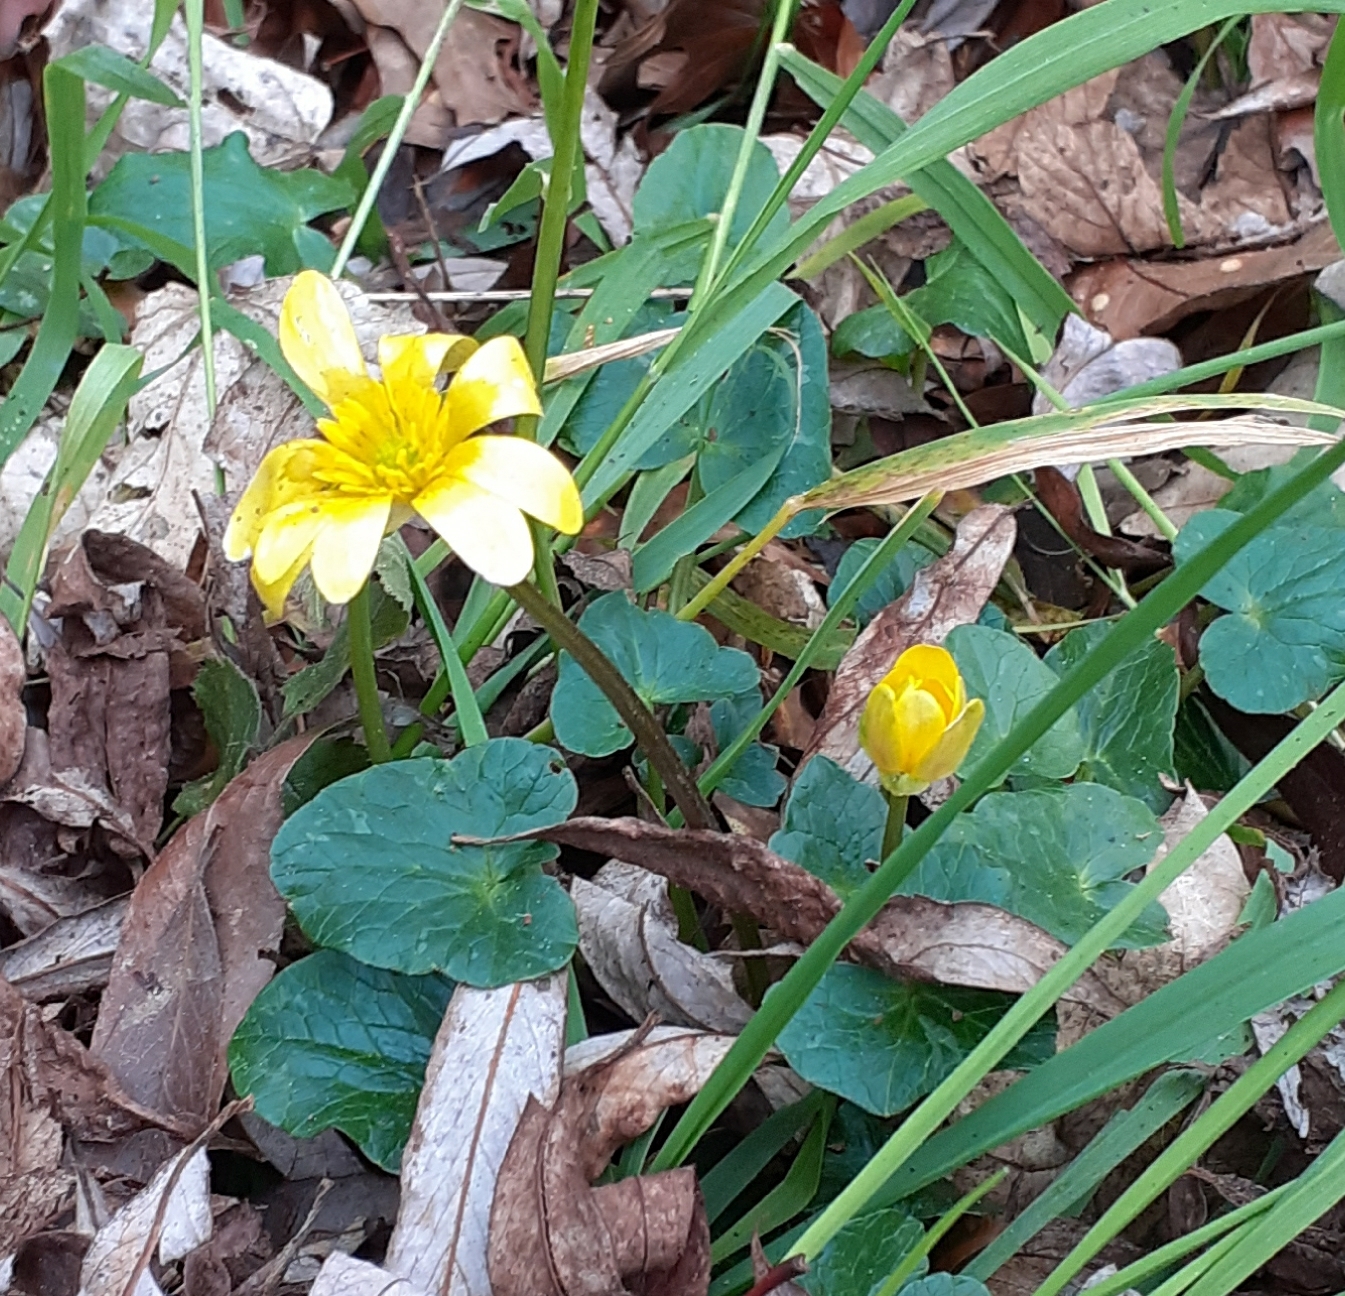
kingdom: Plantae
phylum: Tracheophyta
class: Magnoliopsida
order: Ranunculales
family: Ranunculaceae
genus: Ficaria
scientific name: Ficaria verna
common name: Lesser celandine
